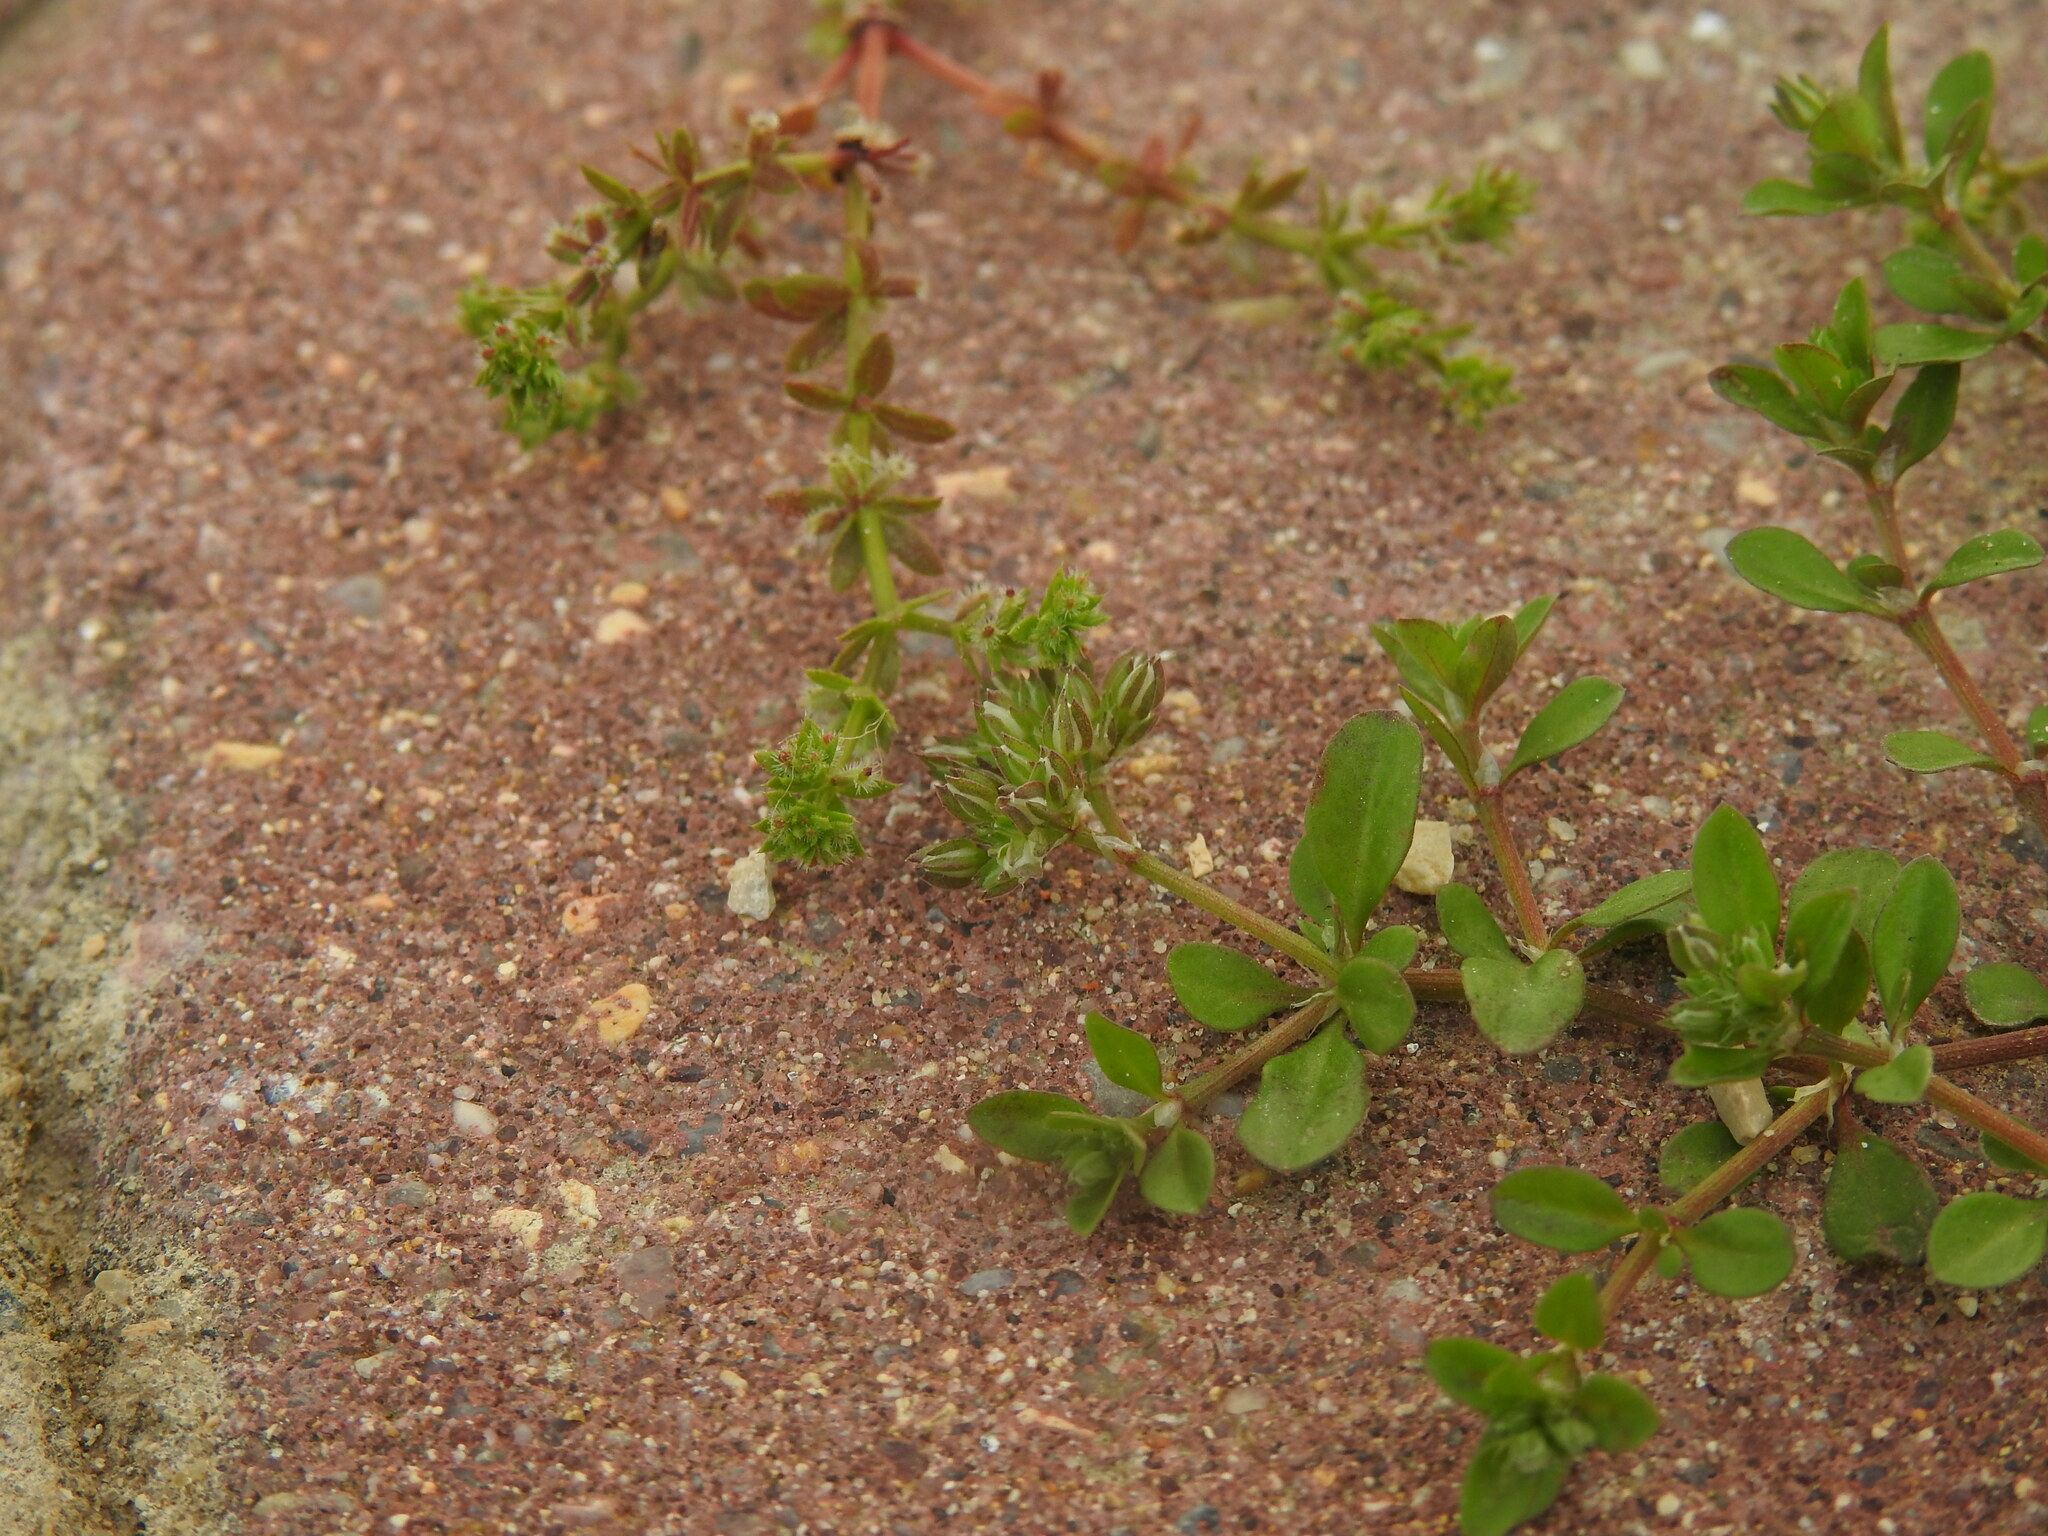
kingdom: Plantae
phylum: Tracheophyta
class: Magnoliopsida
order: Caryophyllales
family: Caryophyllaceae
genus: Polycarpon
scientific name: Polycarpon tetraphyllum
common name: Four-leaved all-seed
